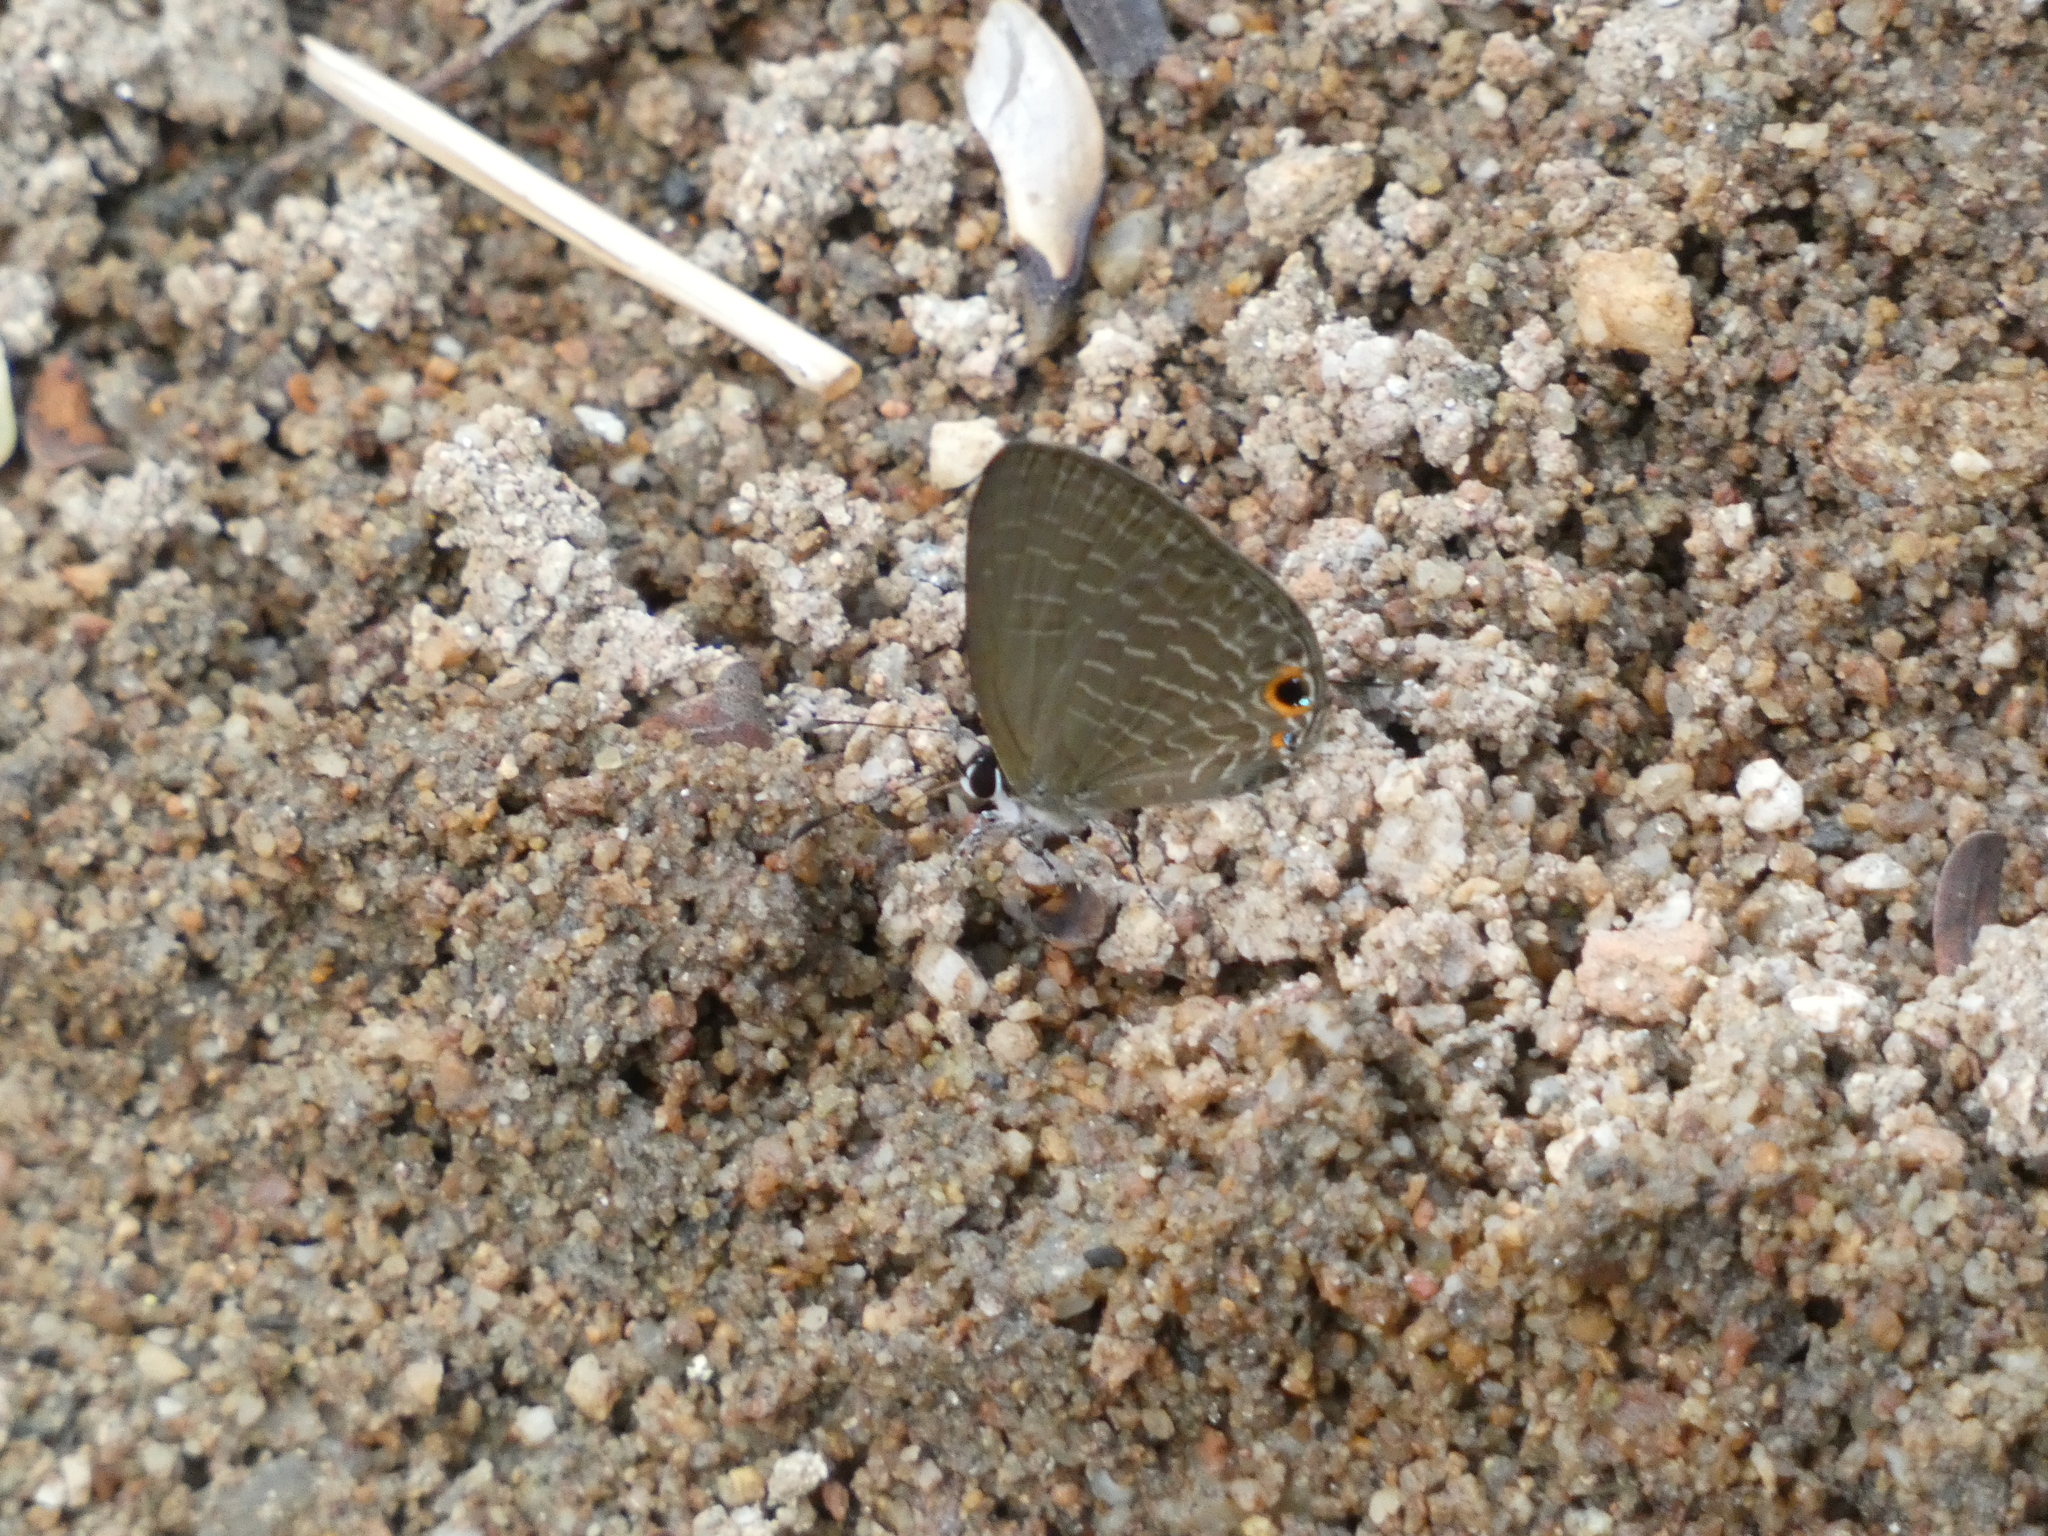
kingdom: Animalia
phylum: Arthropoda
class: Insecta
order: Lepidoptera
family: Lycaenidae
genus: Jamides
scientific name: Jamides bochus
